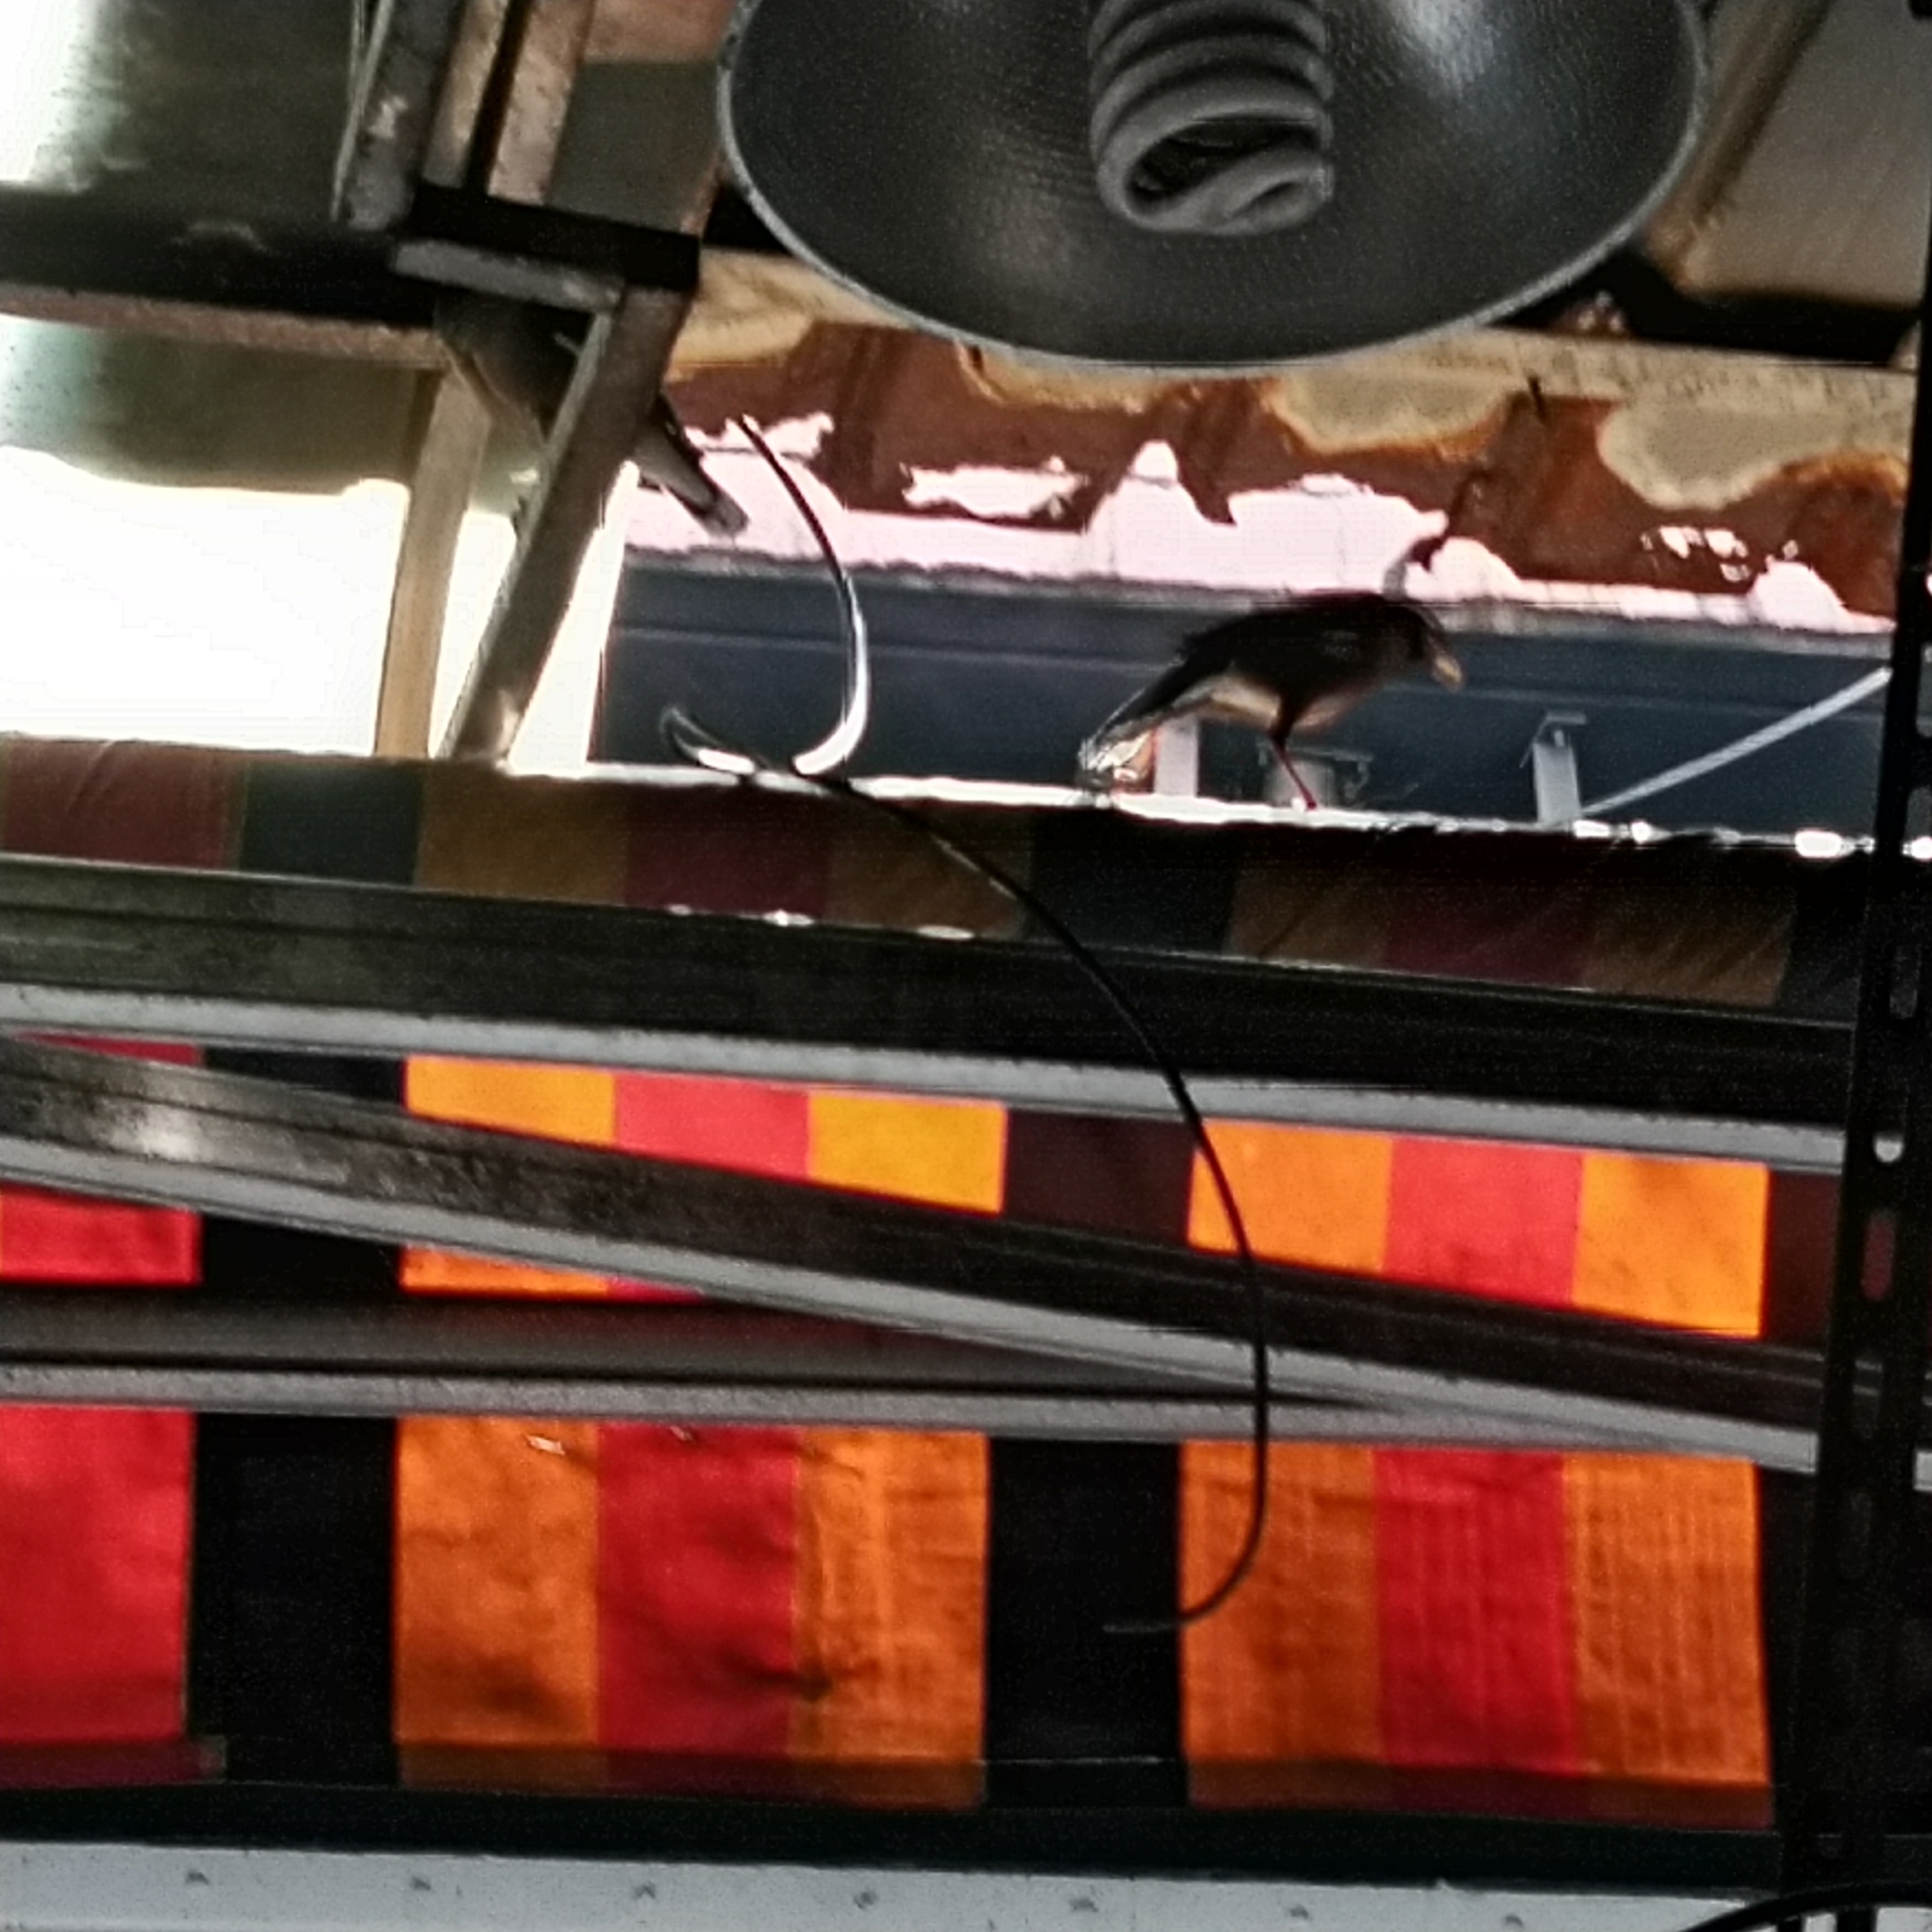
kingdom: Animalia
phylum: Chordata
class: Aves
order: Passeriformes
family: Sturnidae
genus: Acridotheres
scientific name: Acridotheres tristis
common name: Common myna
